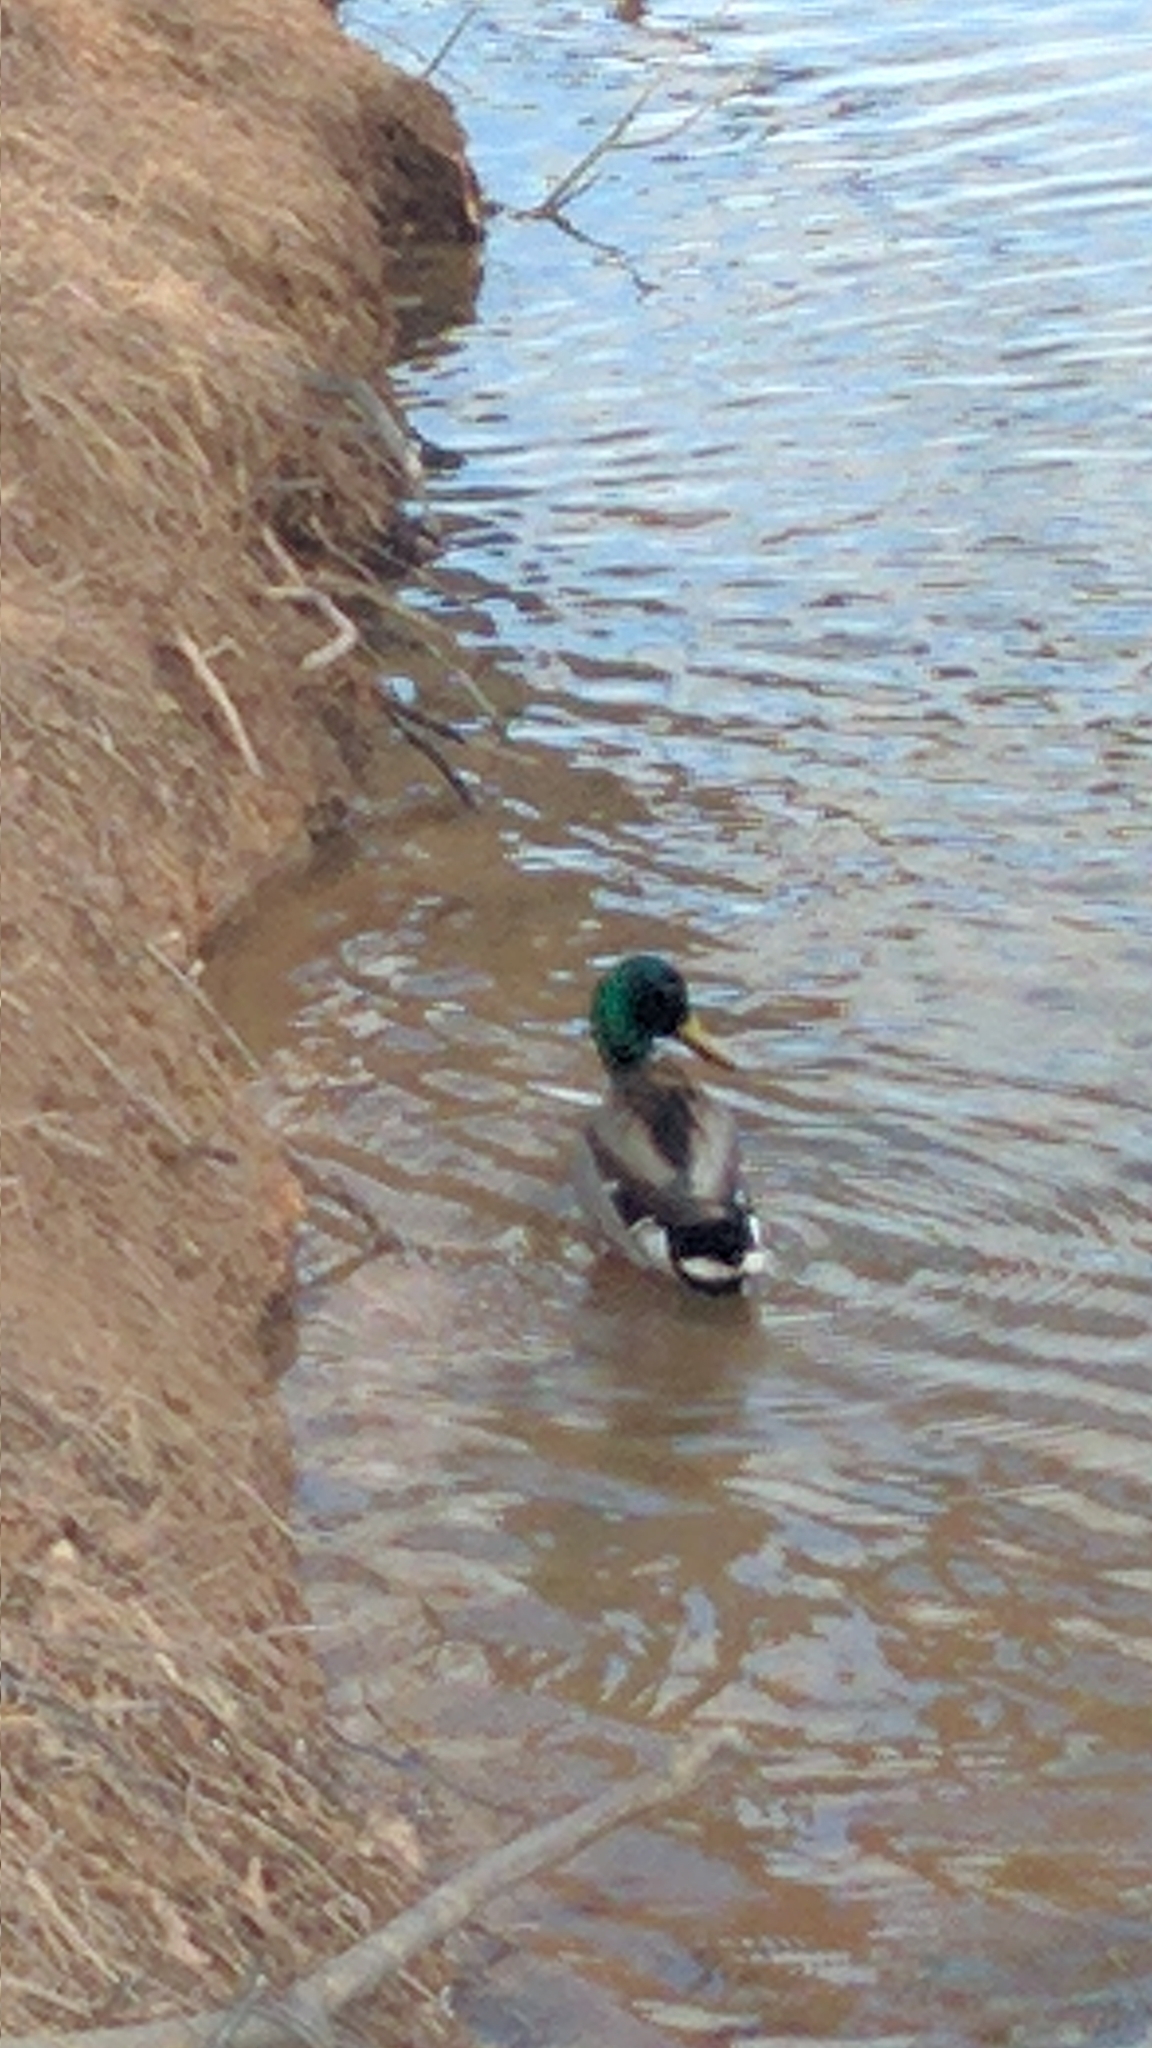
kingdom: Animalia
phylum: Chordata
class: Aves
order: Anseriformes
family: Anatidae
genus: Anas
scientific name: Anas platyrhynchos
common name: Mallard
